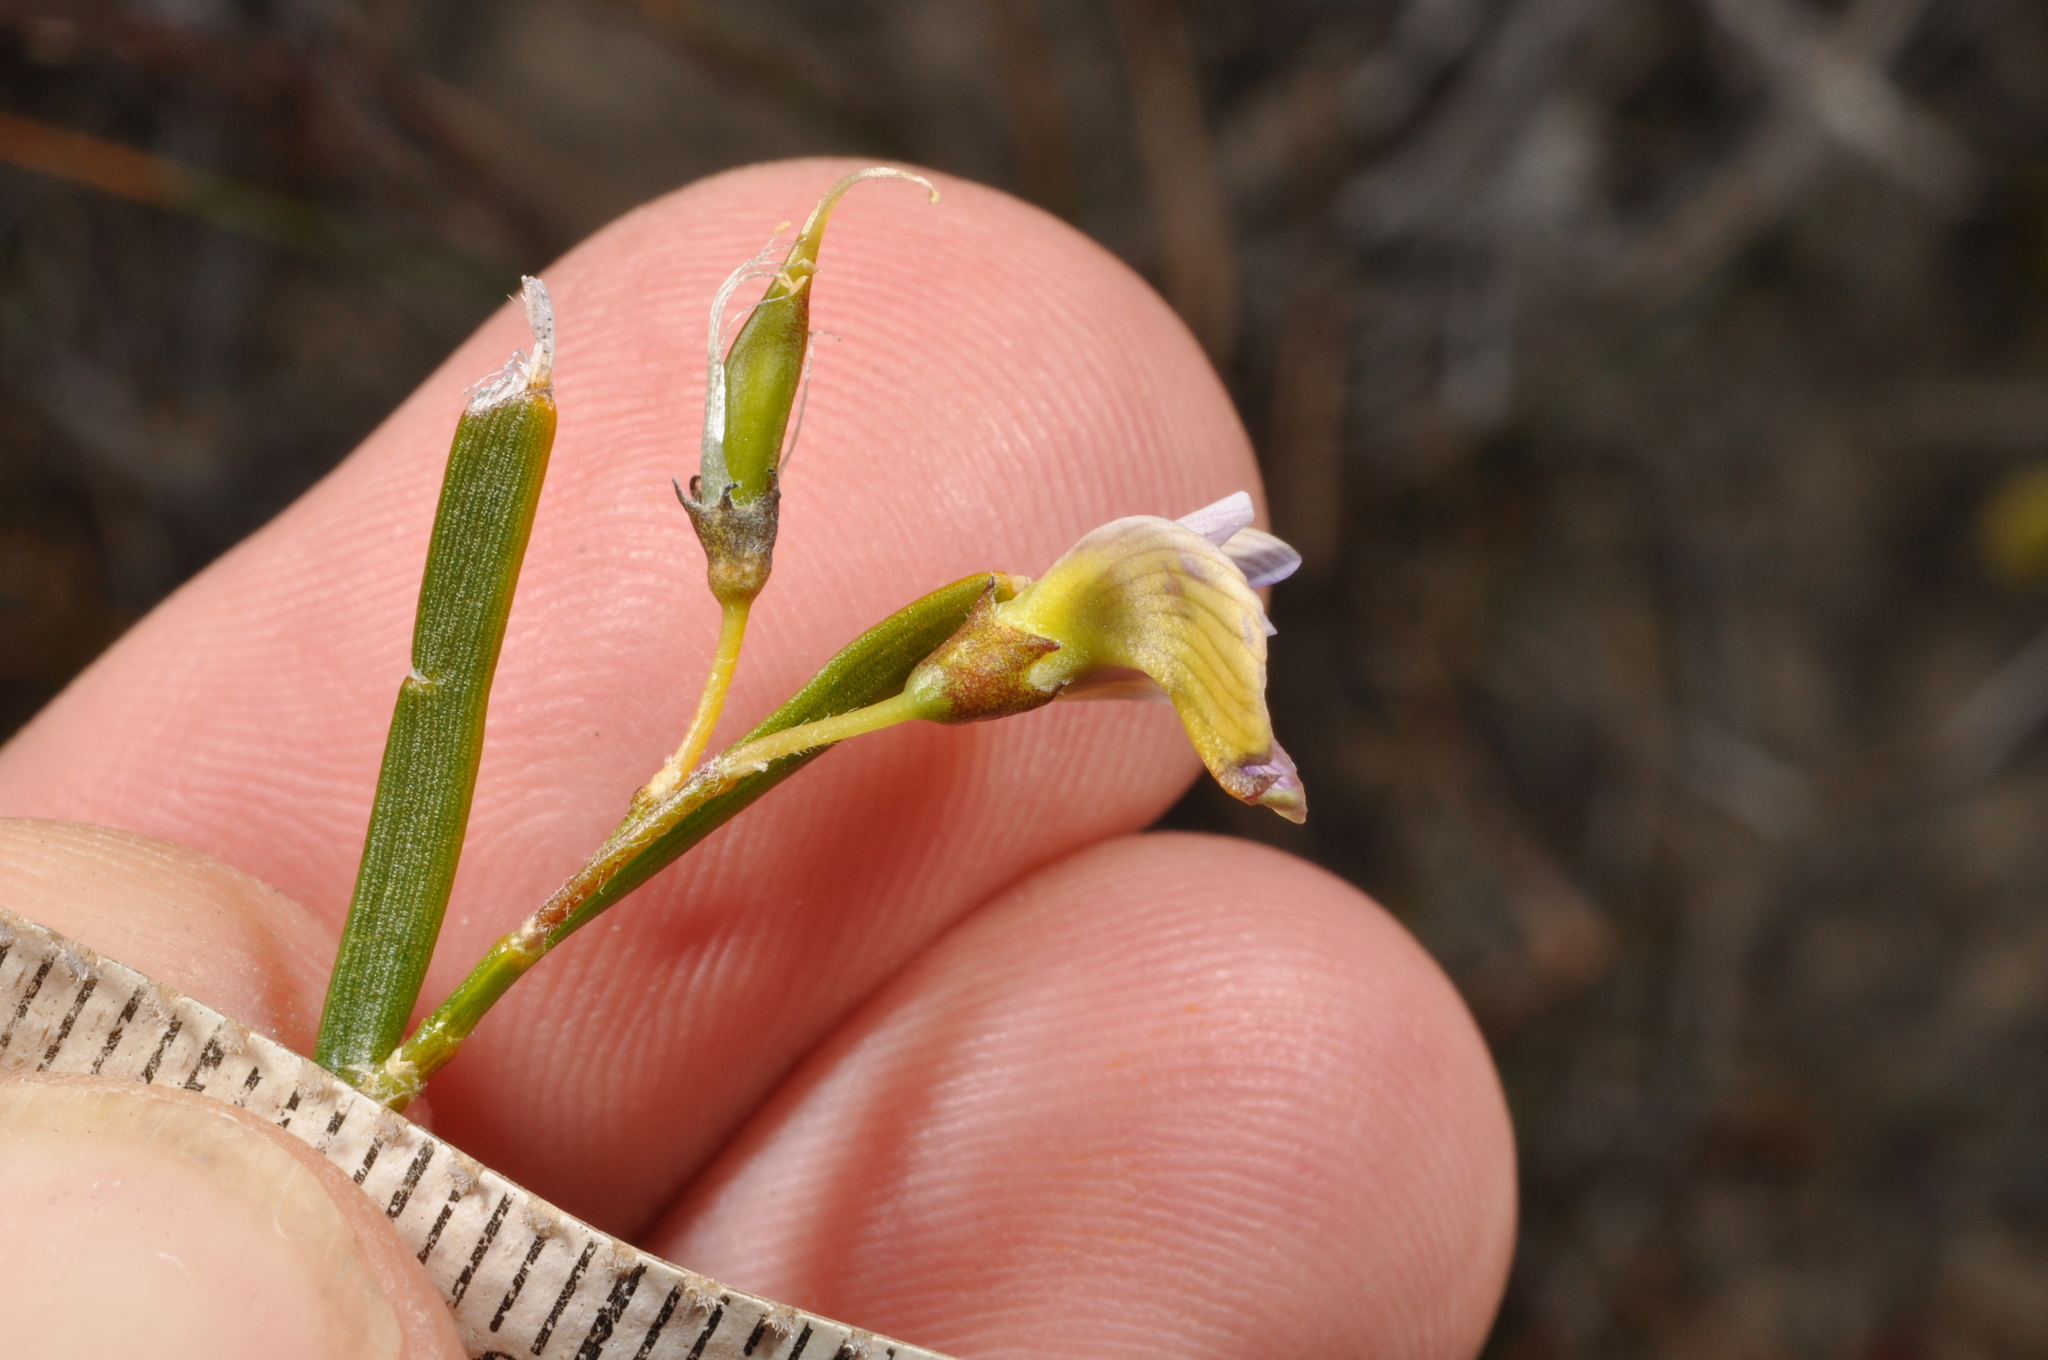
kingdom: Plantae
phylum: Tracheophyta
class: Magnoliopsida
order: Fabales
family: Fabaceae
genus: Carmichaelia
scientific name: Carmichaelia corrugata
